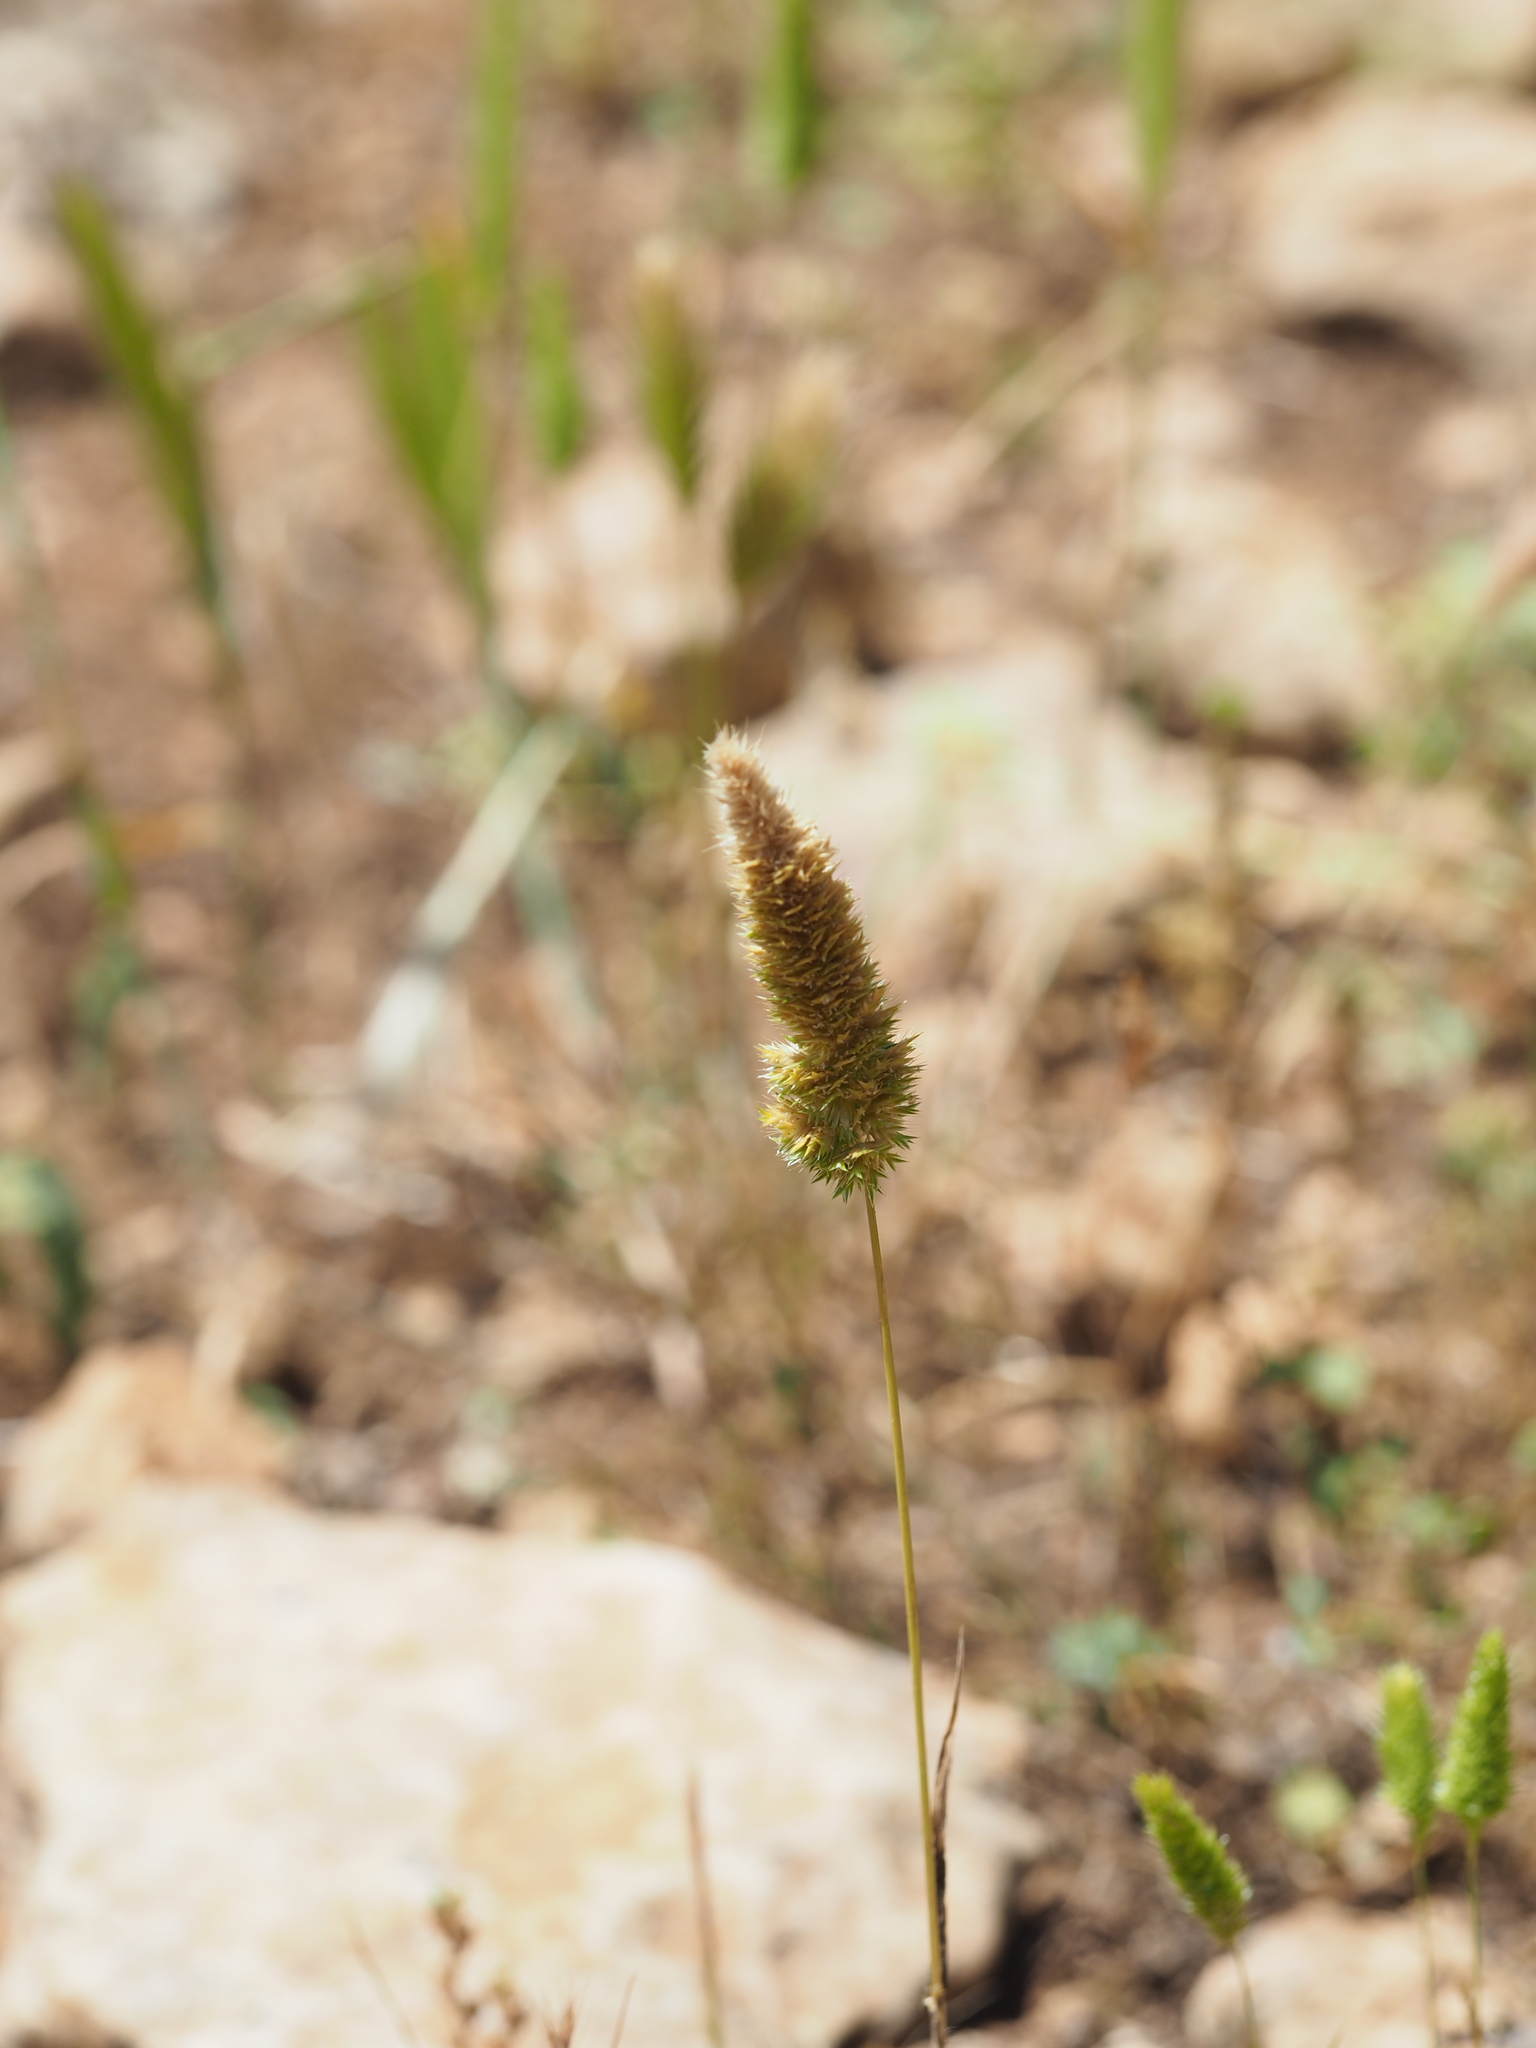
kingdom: Plantae
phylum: Tracheophyta
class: Liliopsida
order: Poales
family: Poaceae
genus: Rostraria
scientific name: Rostraria cristata
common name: Mediterranean hair-grass
